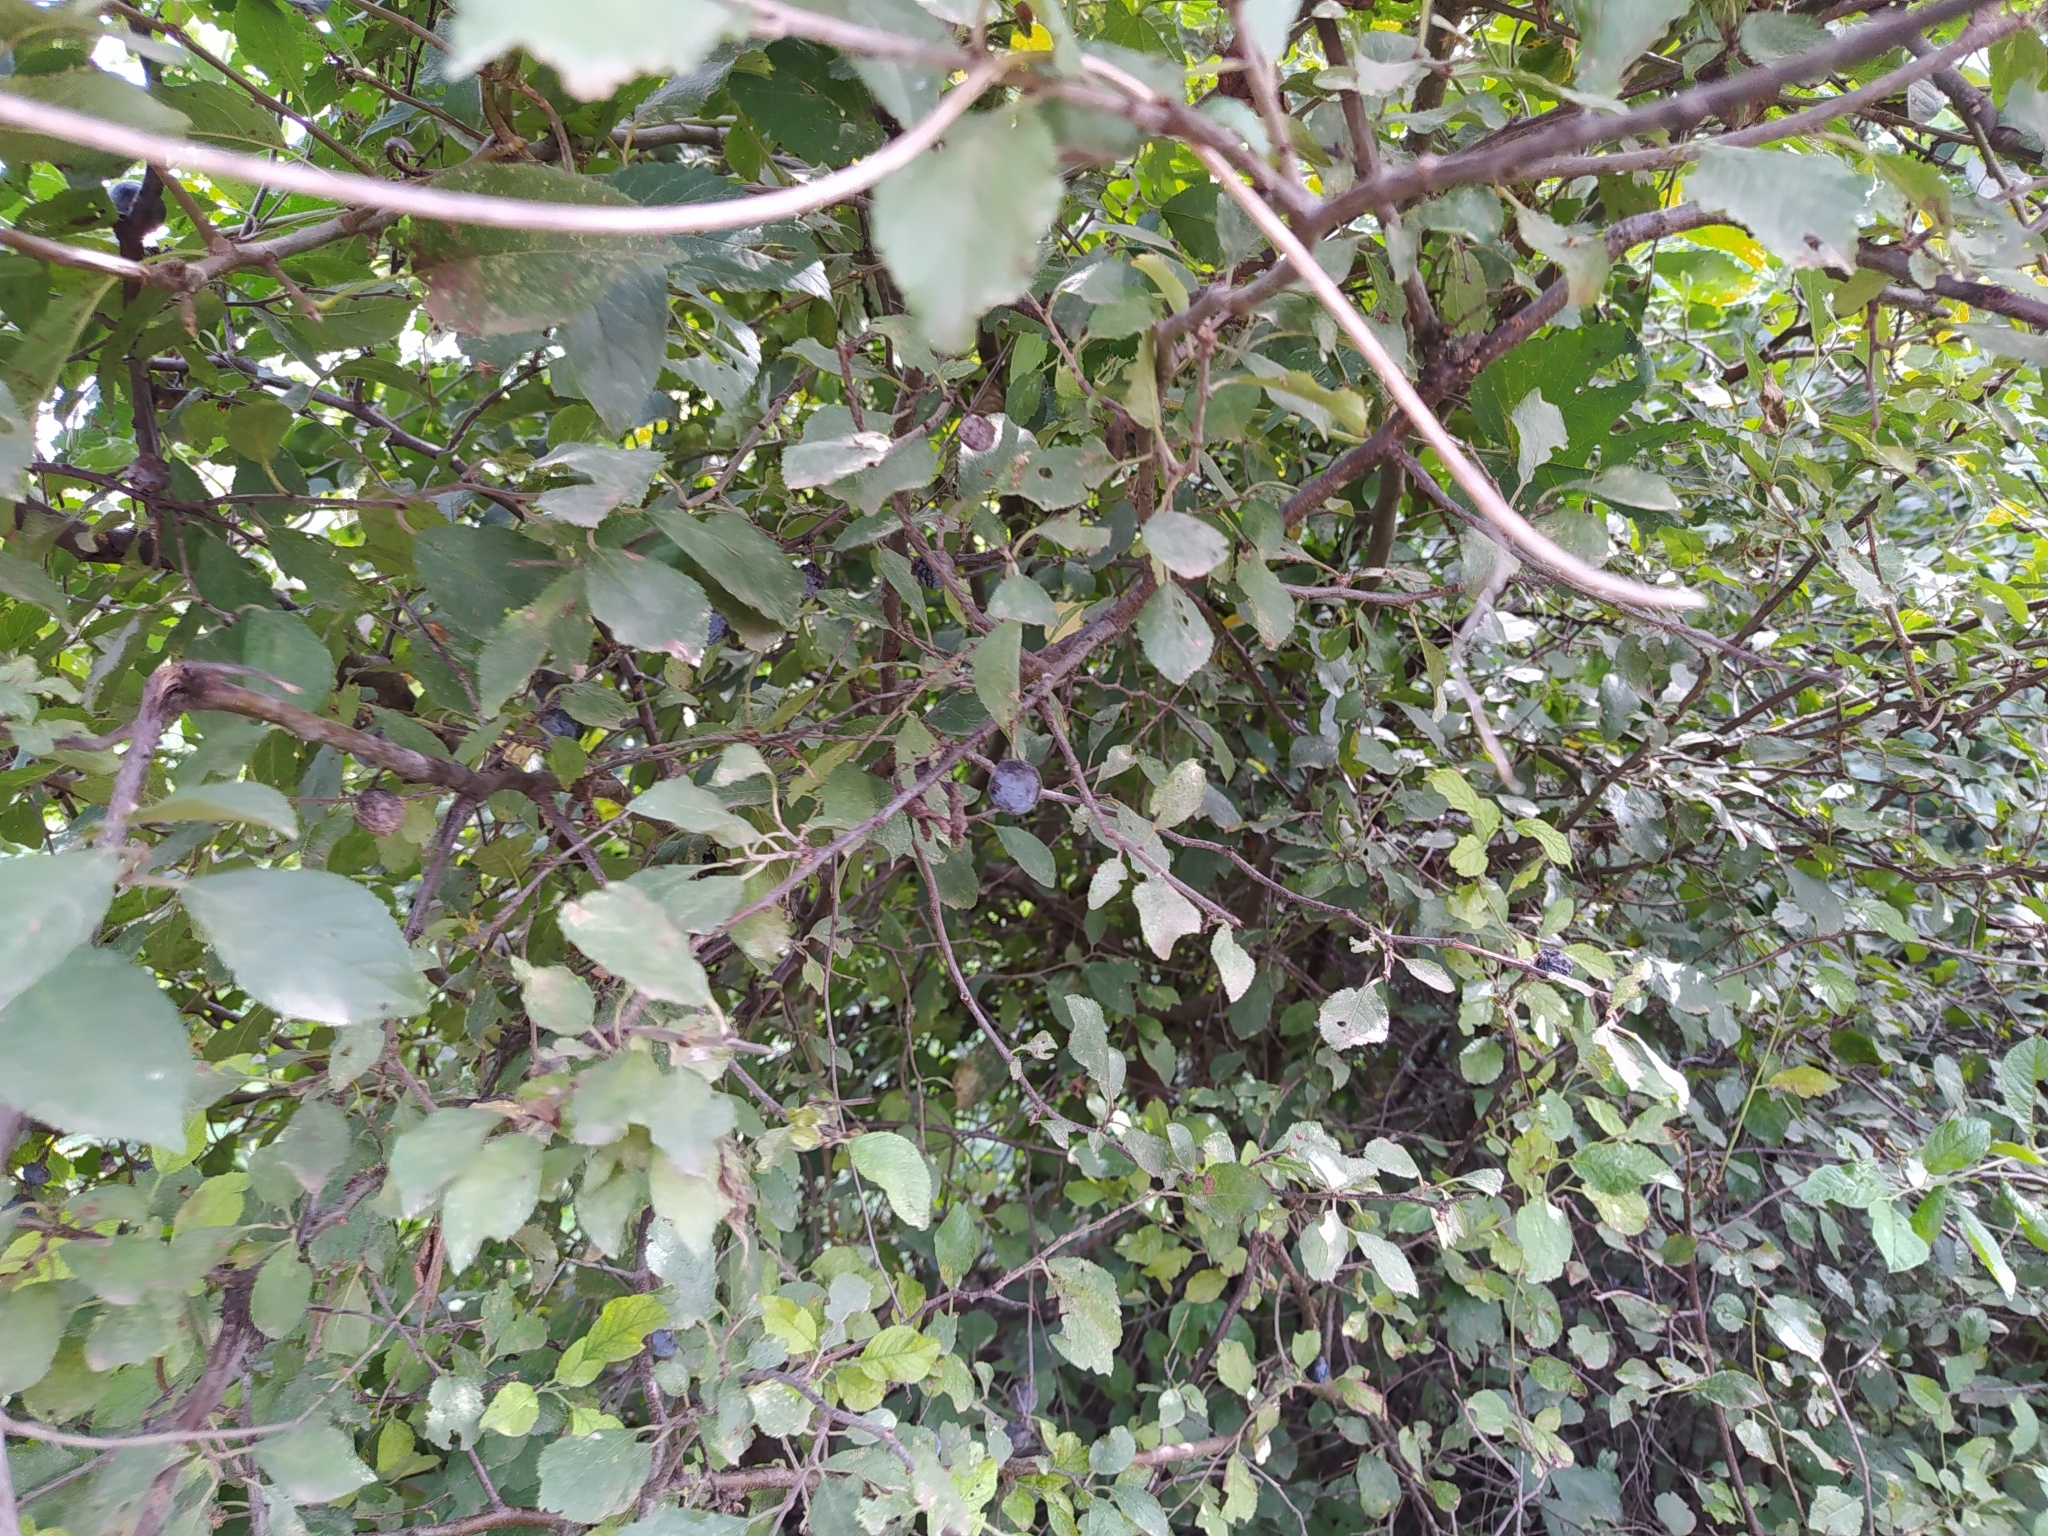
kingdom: Plantae
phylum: Tracheophyta
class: Magnoliopsida
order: Rosales
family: Rosaceae
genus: Prunus
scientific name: Prunus spinosa
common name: Blackthorn
